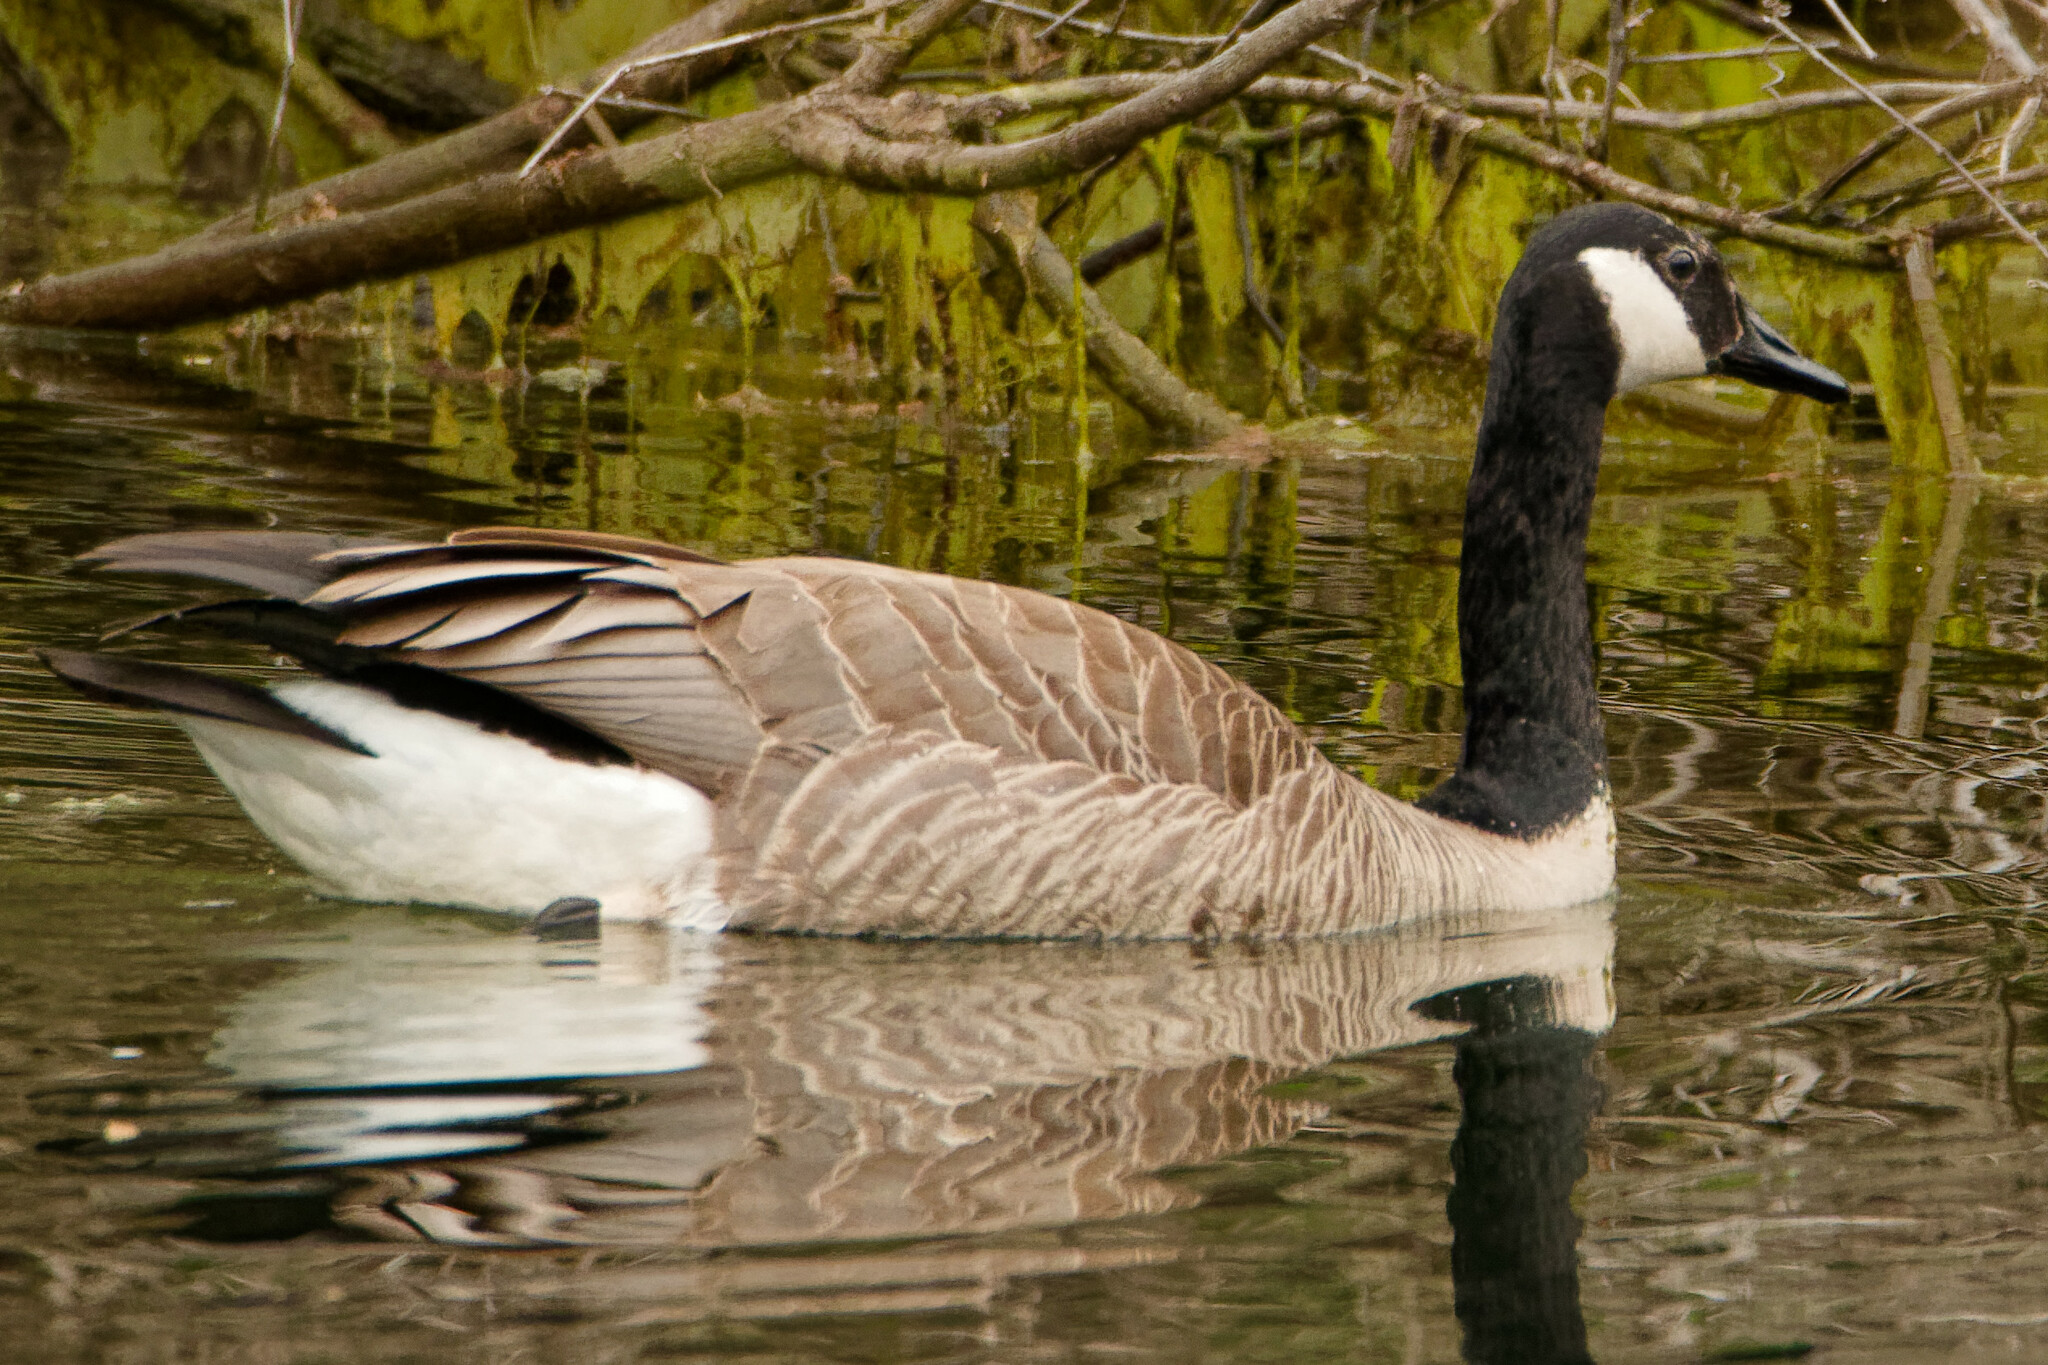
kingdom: Animalia
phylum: Chordata
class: Aves
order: Anseriformes
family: Anatidae
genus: Branta
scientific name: Branta canadensis
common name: Canada goose
